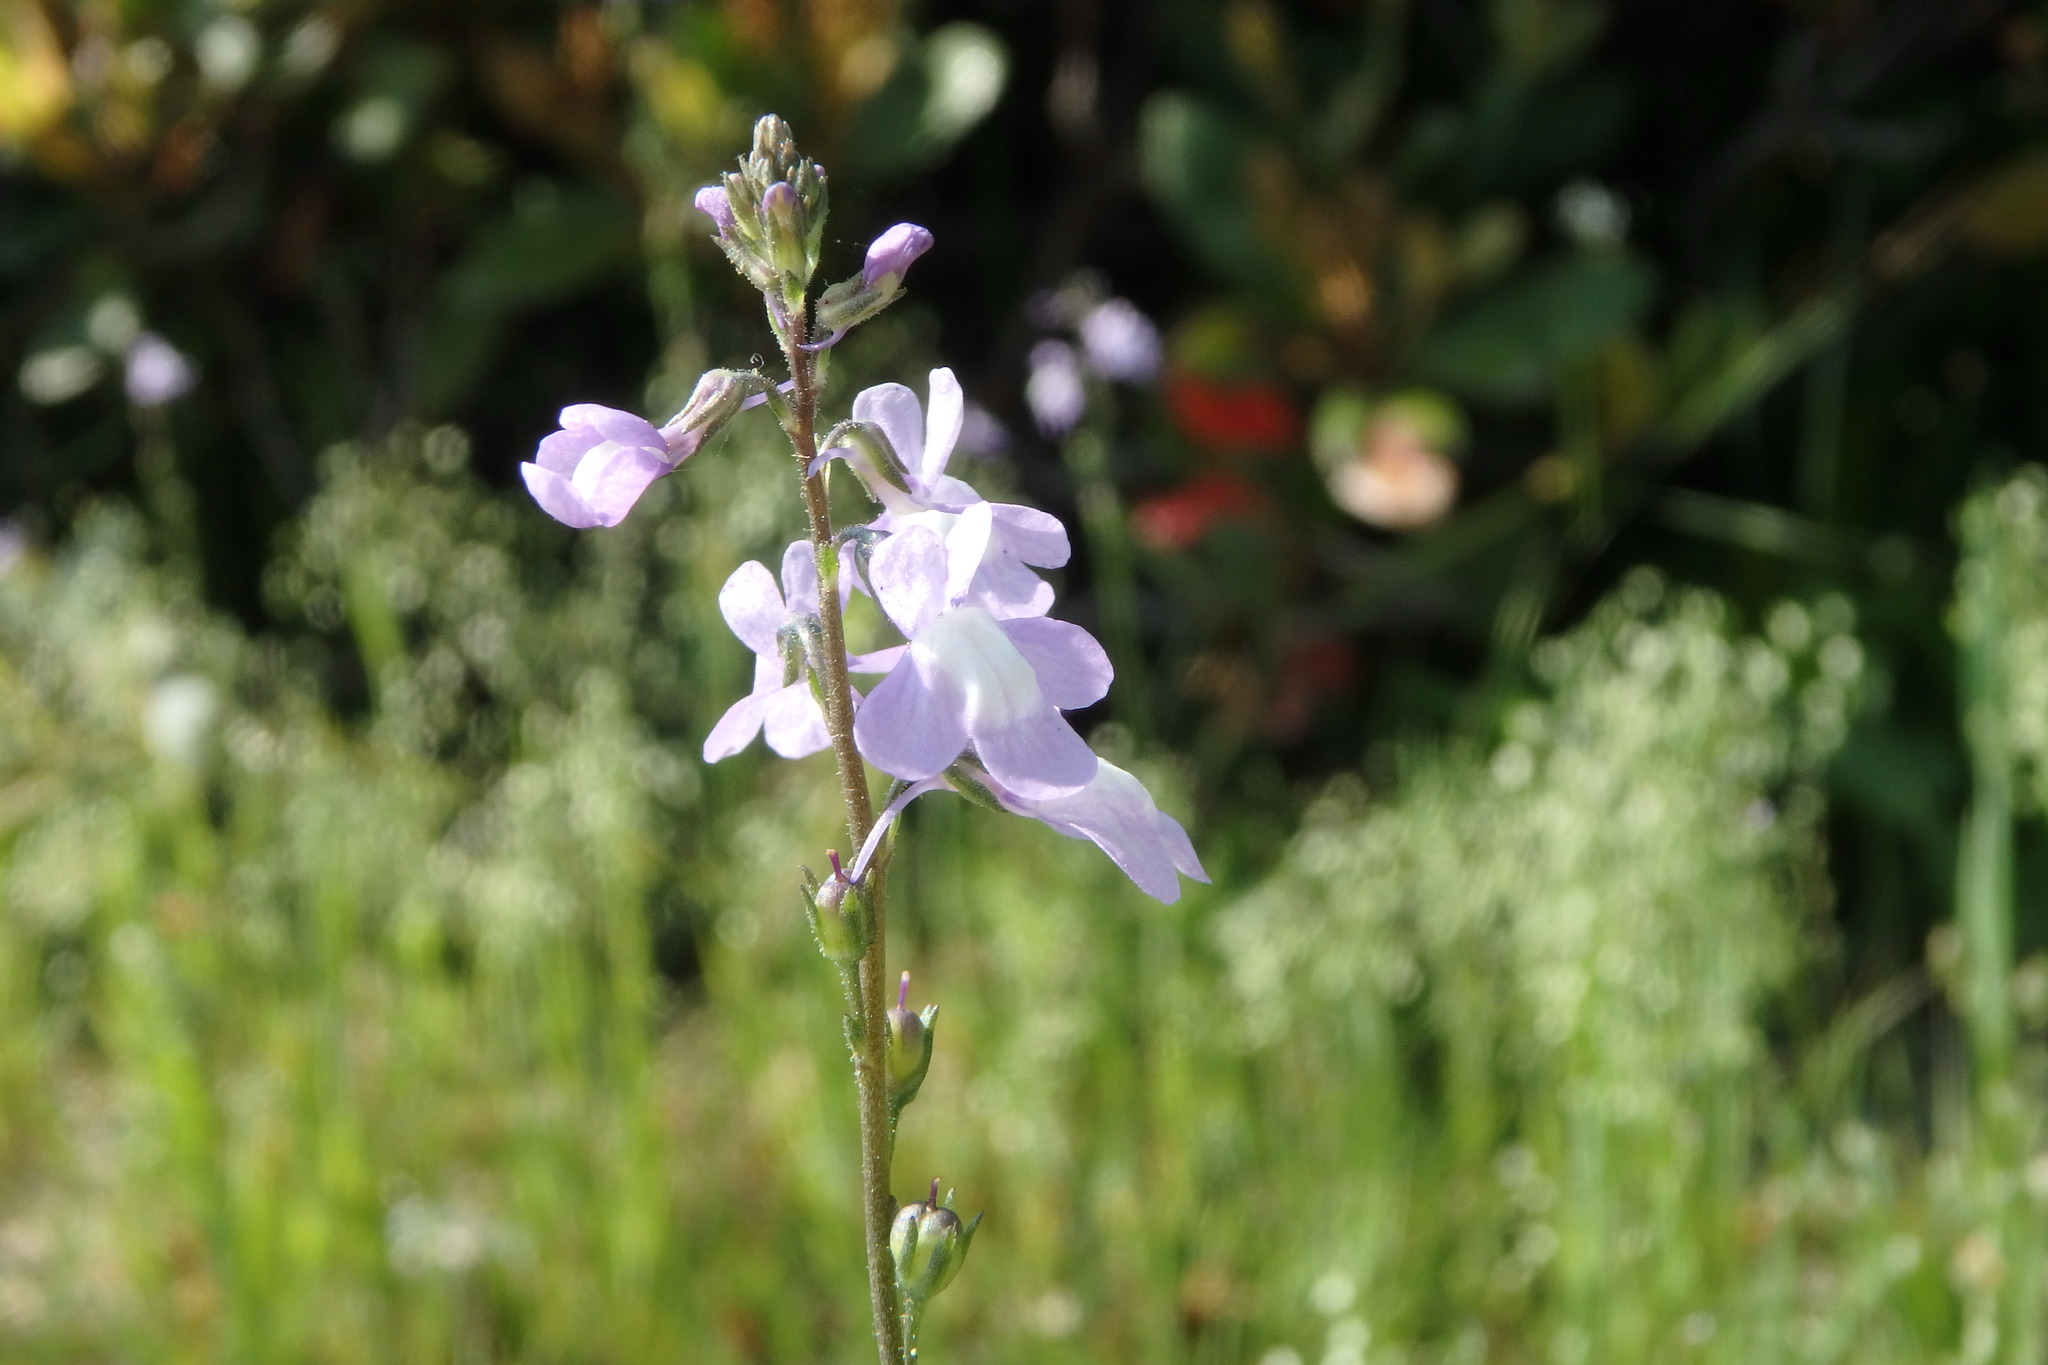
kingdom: Plantae
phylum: Tracheophyta
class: Magnoliopsida
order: Lamiales
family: Plantaginaceae
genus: Nuttallanthus
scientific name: Nuttallanthus canadensis
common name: Blue toadflax
